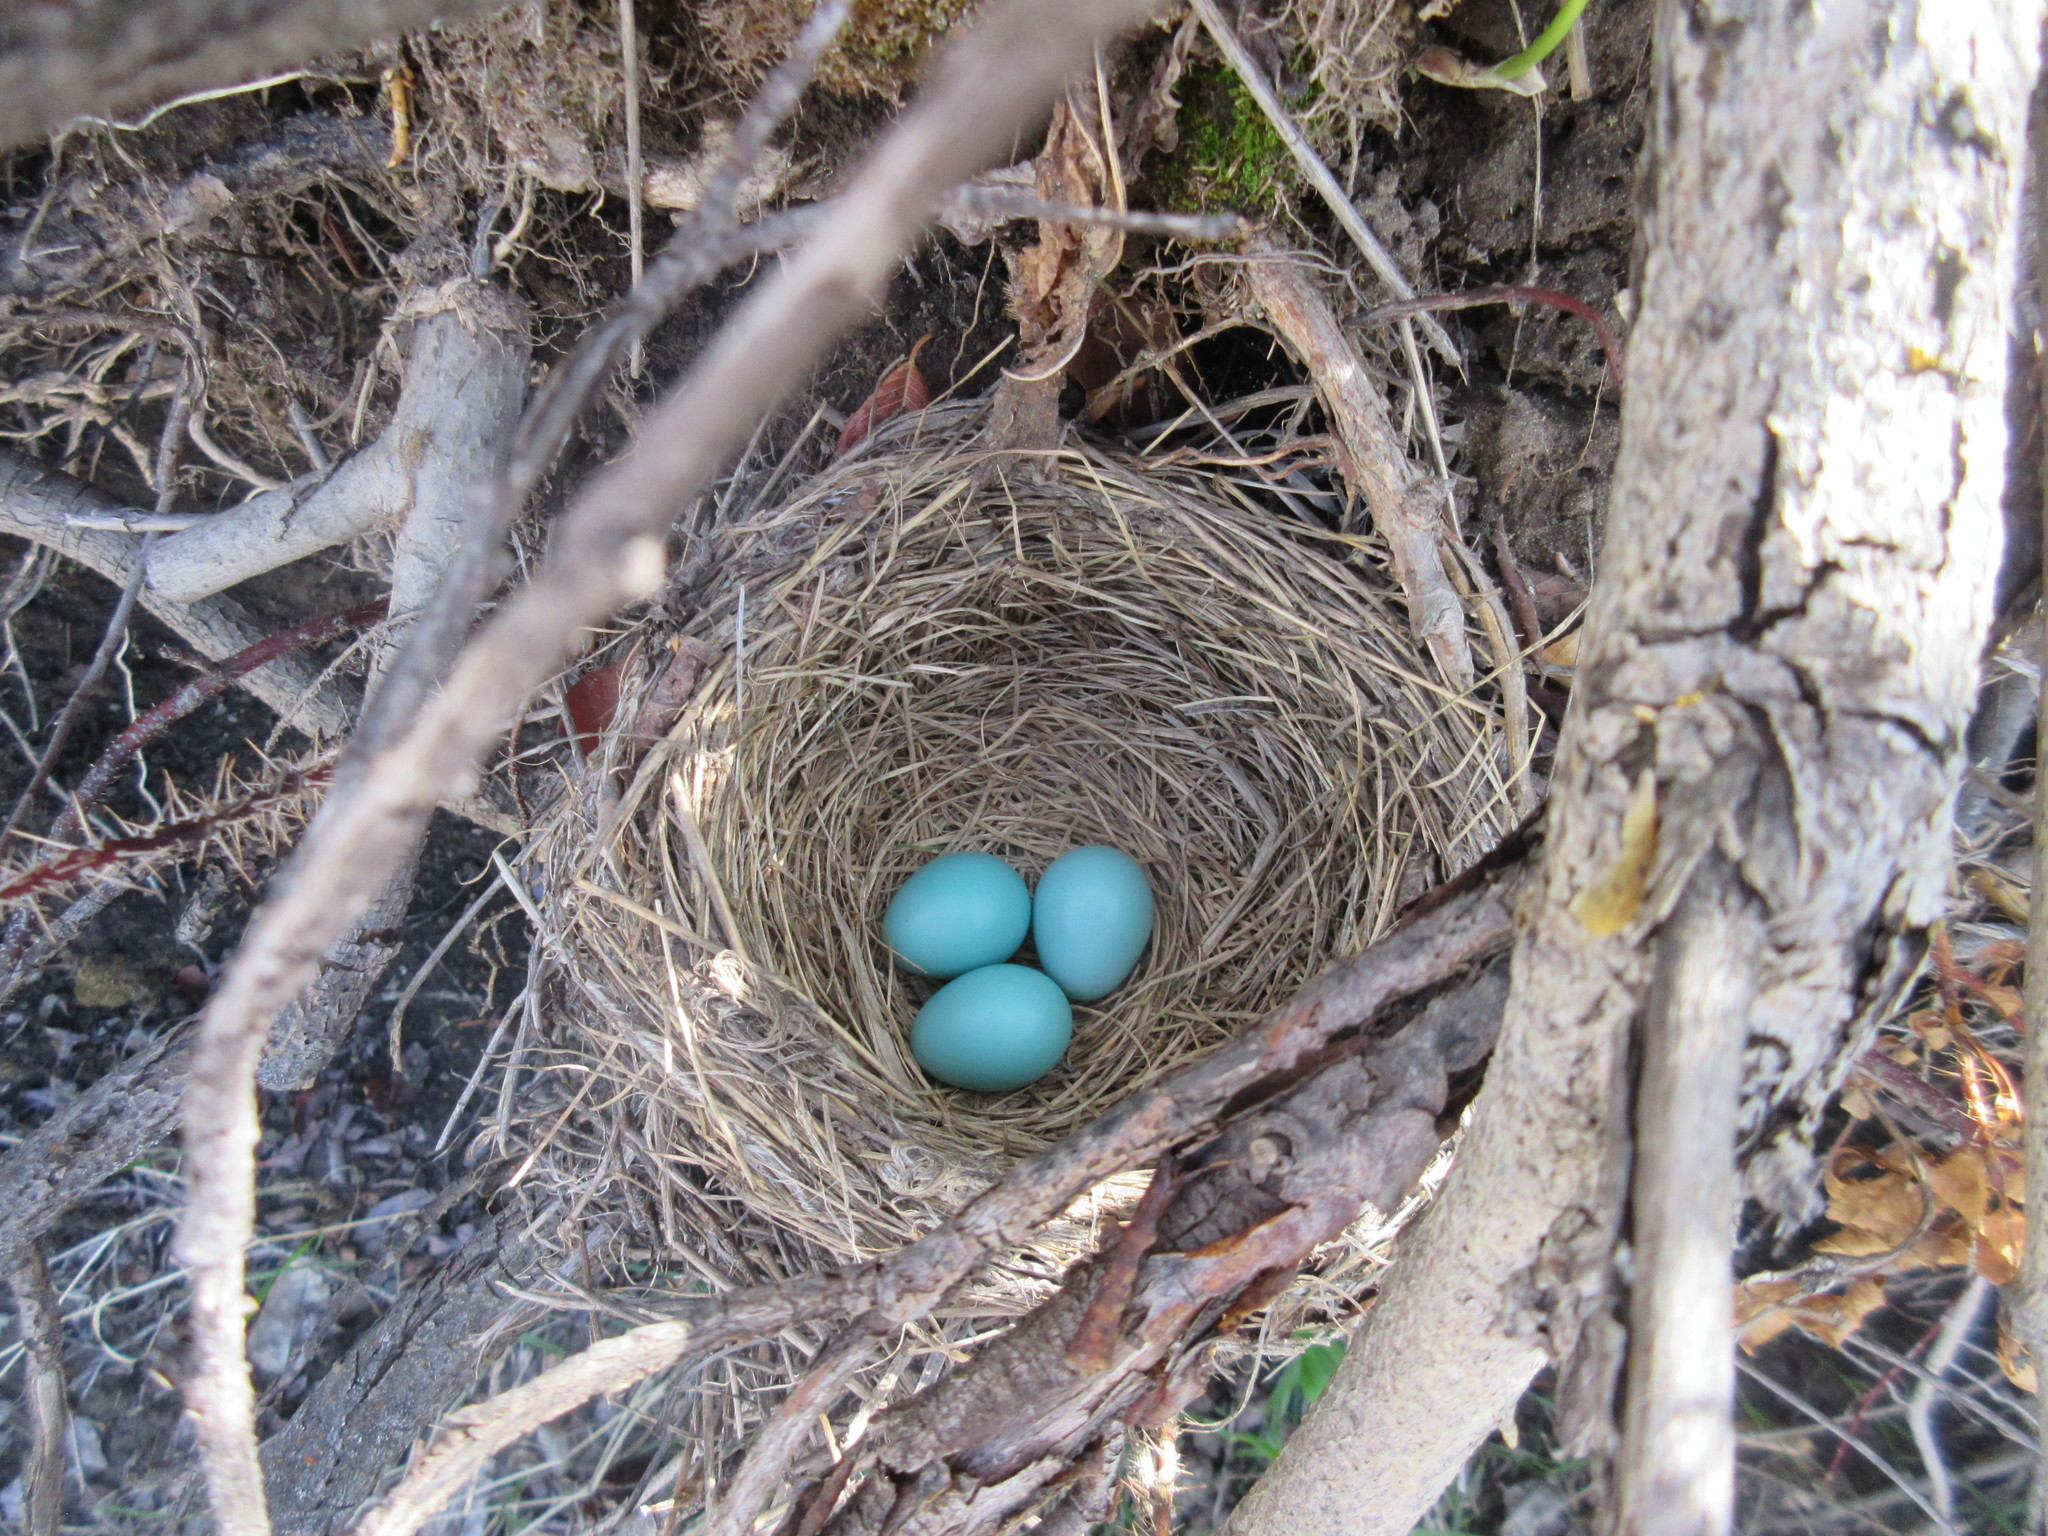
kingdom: Animalia
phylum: Chordata
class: Aves
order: Passeriformes
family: Turdidae
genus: Turdus
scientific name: Turdus migratorius
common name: American robin
